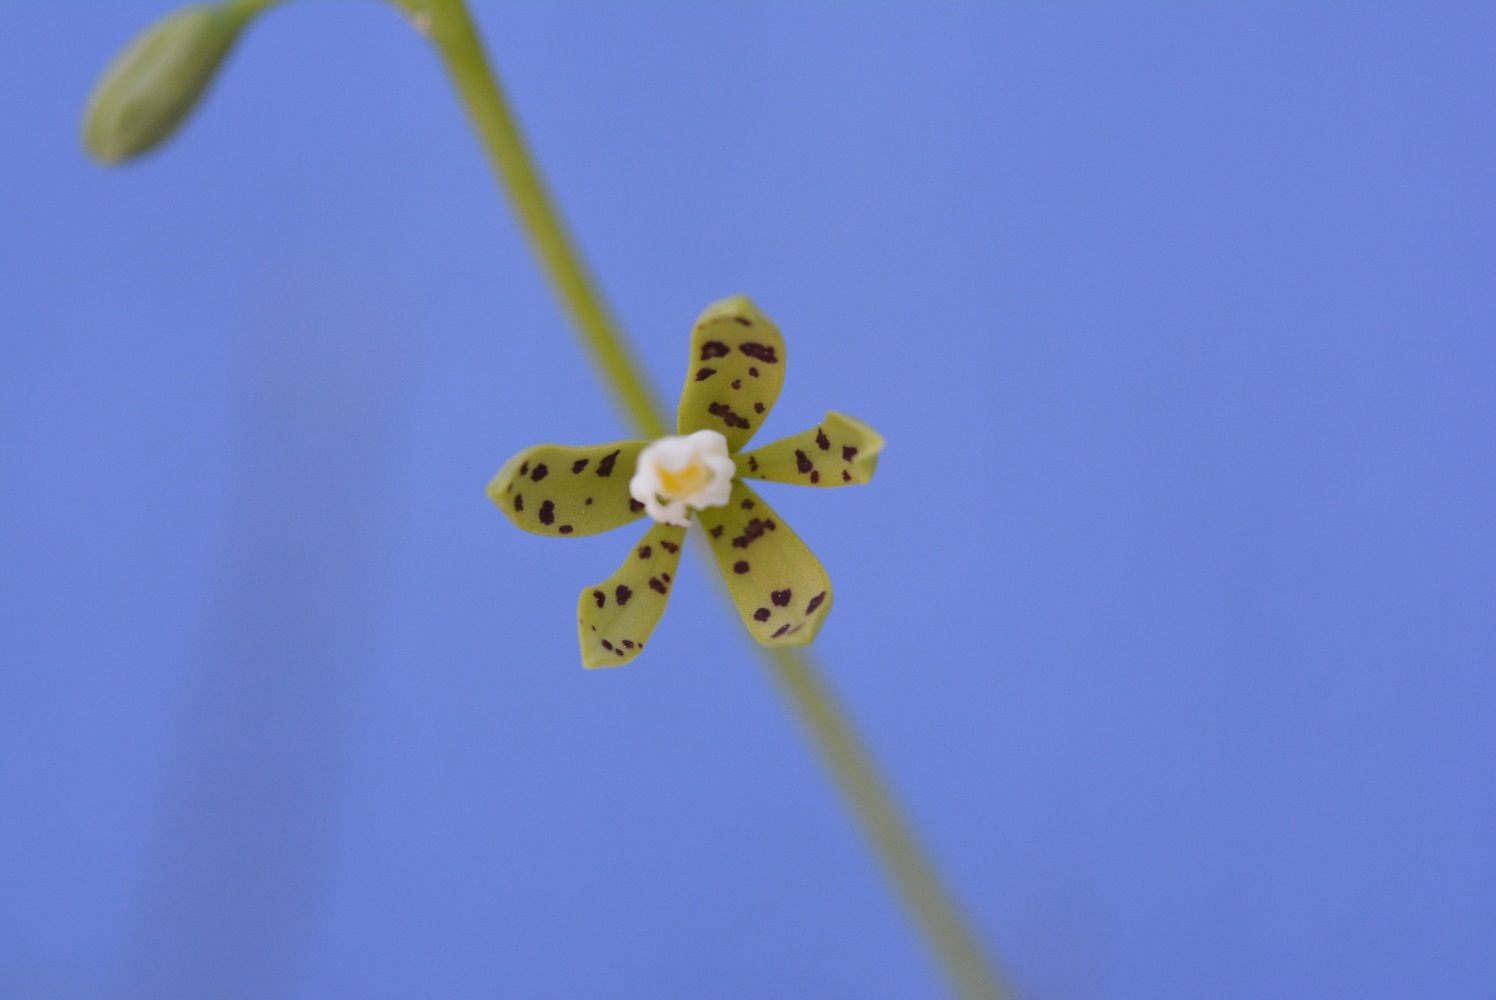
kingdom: Plantae
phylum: Tracheophyta
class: Liliopsida
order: Asparagales
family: Orchidaceae
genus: Prosthechea
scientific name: Prosthechea panthera
